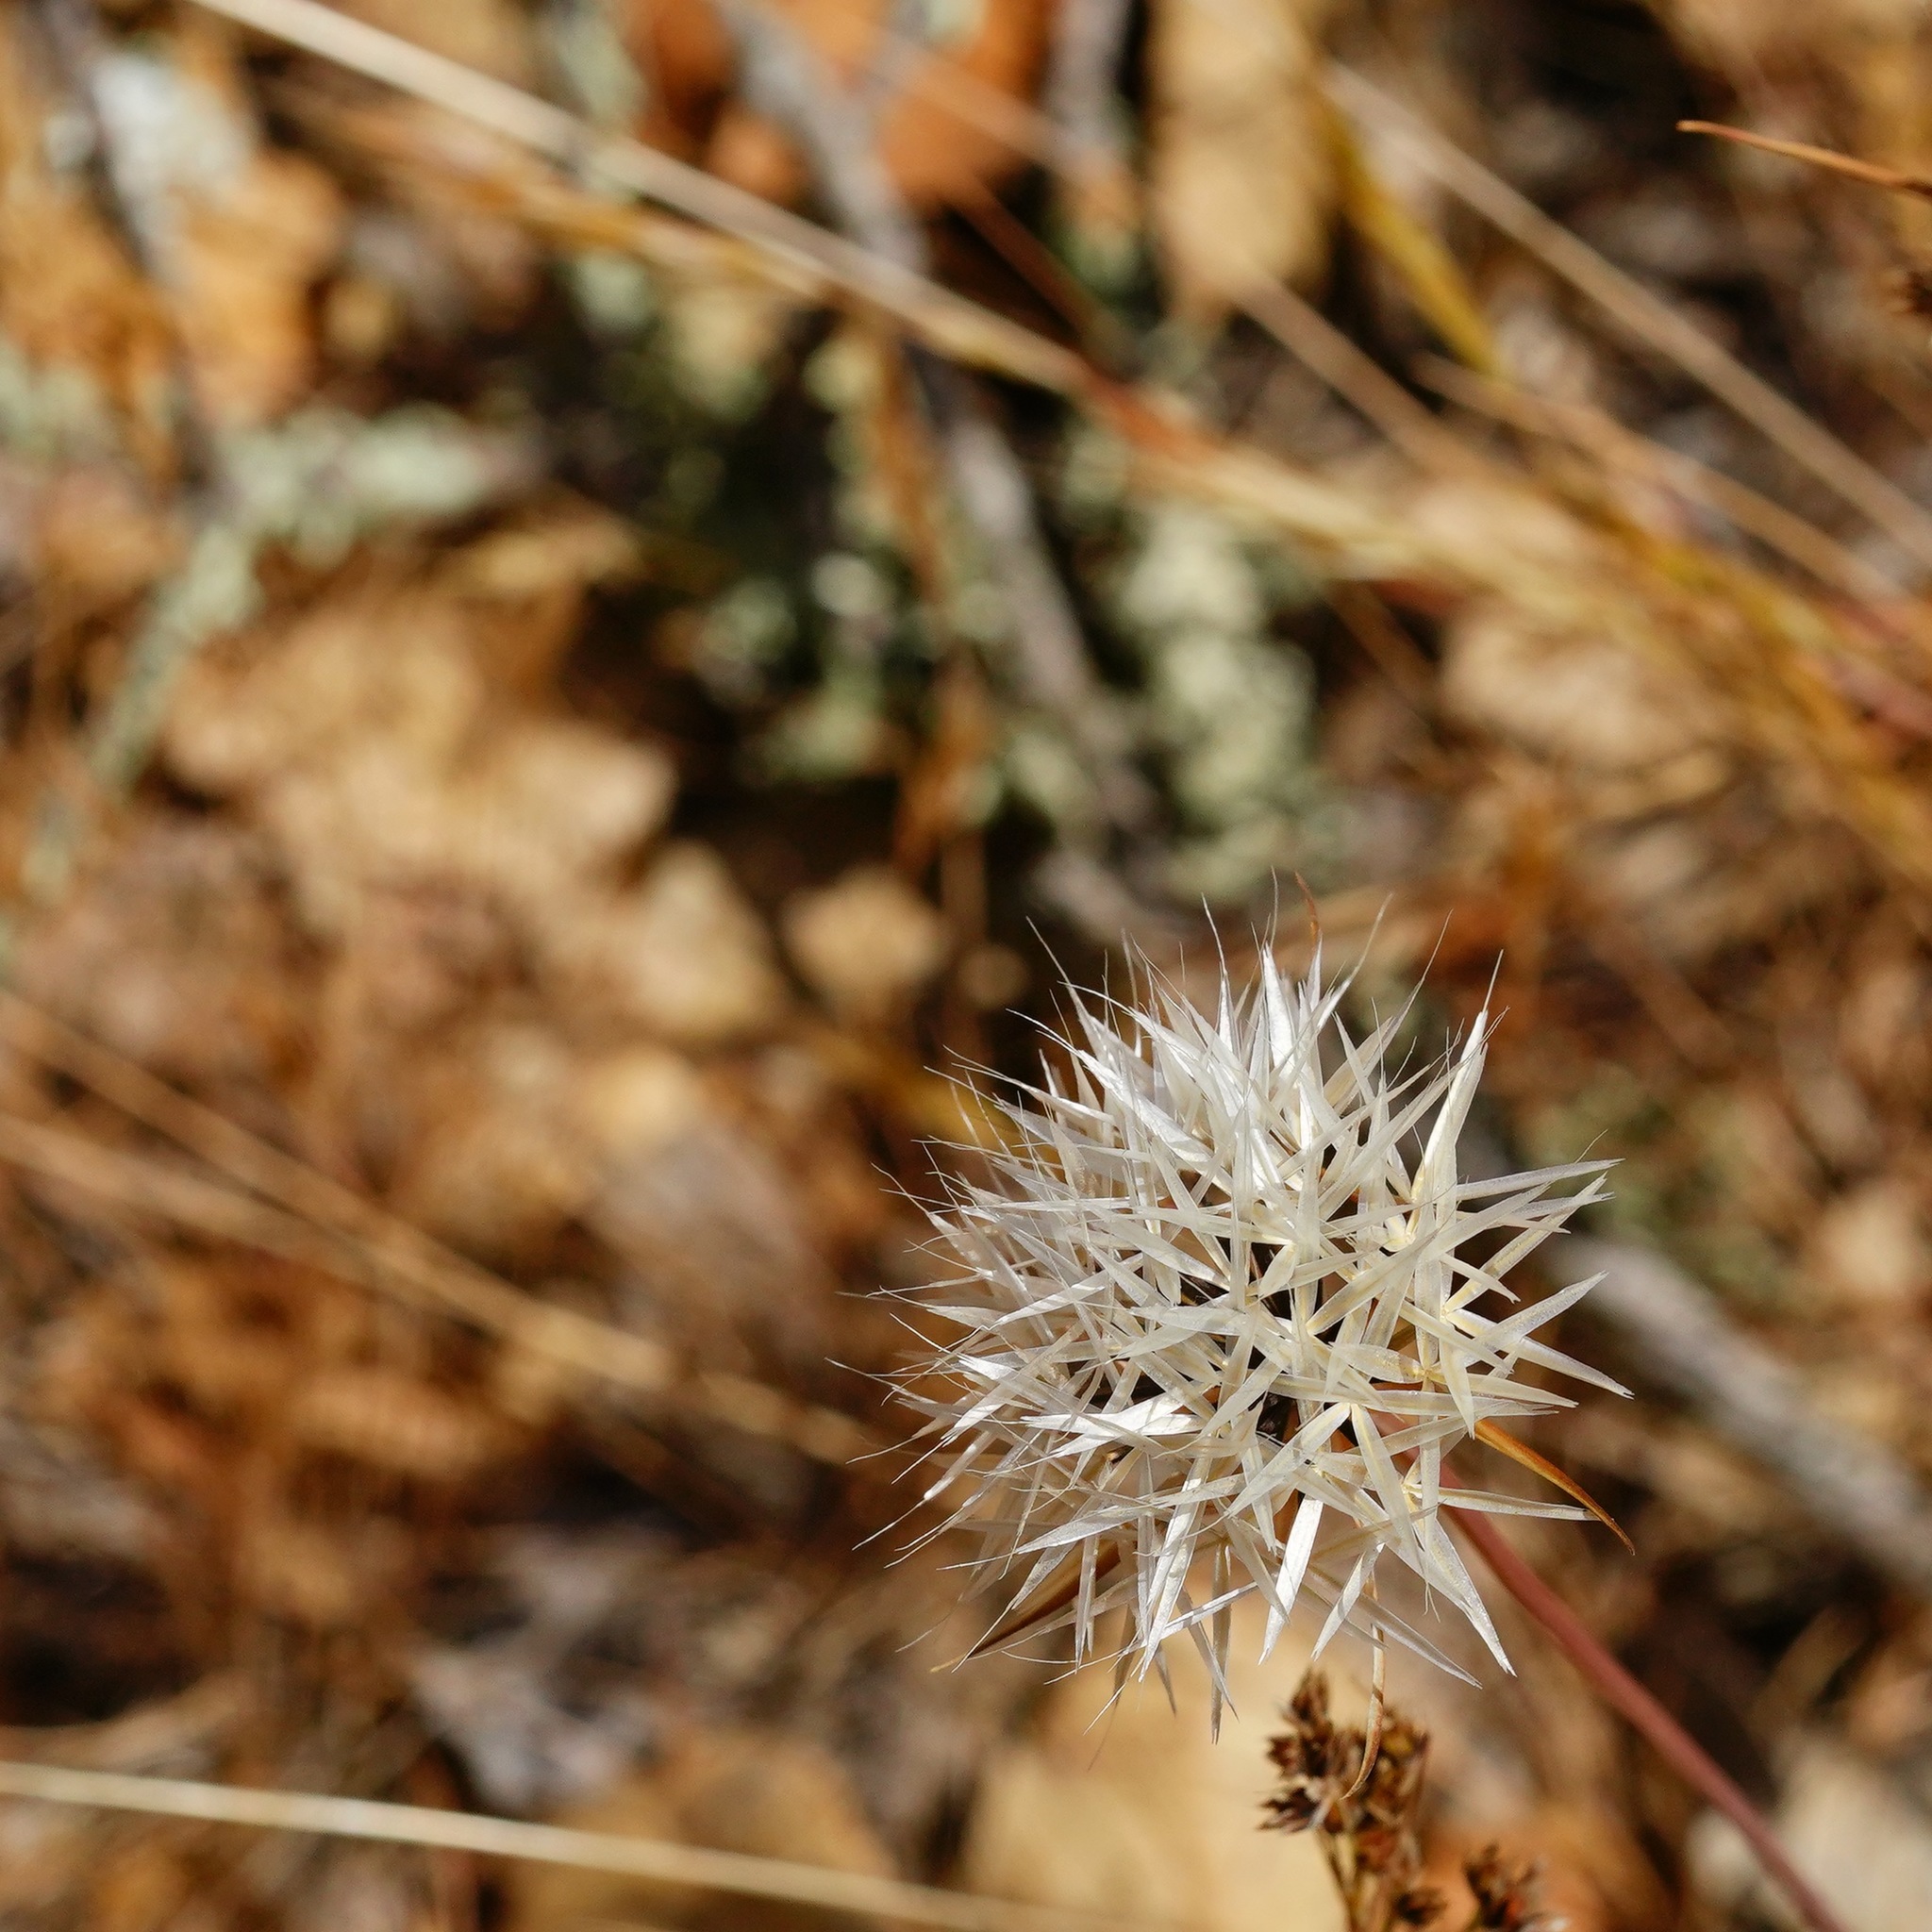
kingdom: Plantae
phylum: Tracheophyta
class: Magnoliopsida
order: Asterales
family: Asteraceae
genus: Microseris
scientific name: Microseris lindleyi
